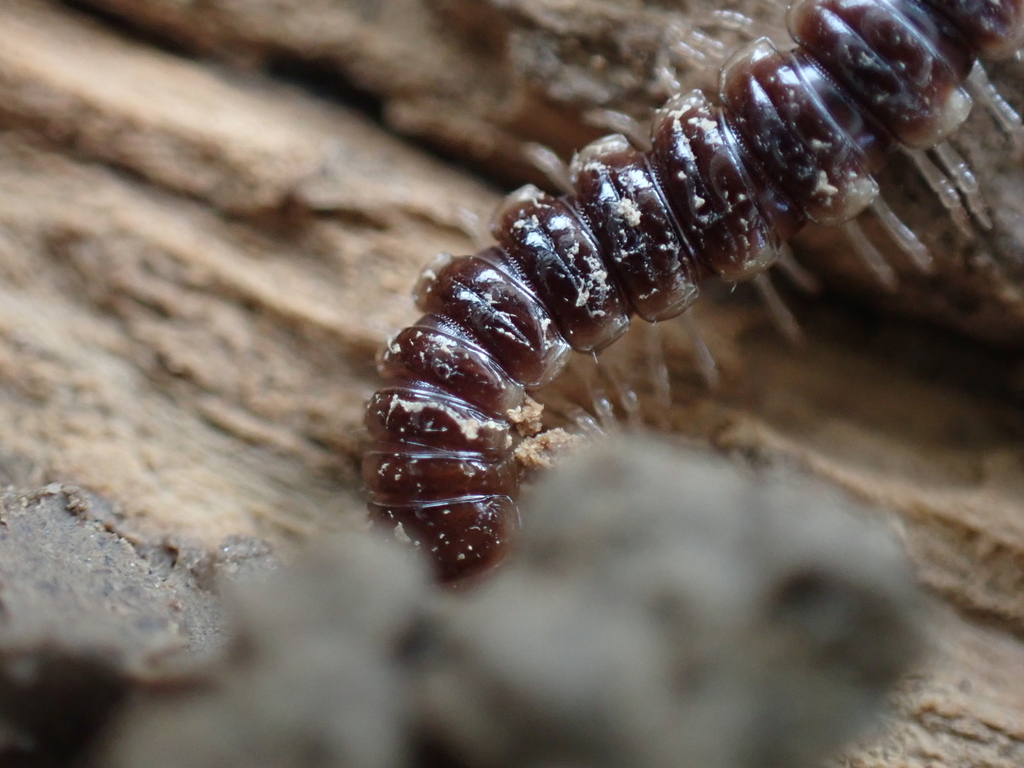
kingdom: Animalia
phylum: Arthropoda
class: Diplopoda
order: Polydesmida
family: Paradoxosomatidae
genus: Oxidus
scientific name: Oxidus gracilis
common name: Greenhouse millipede
